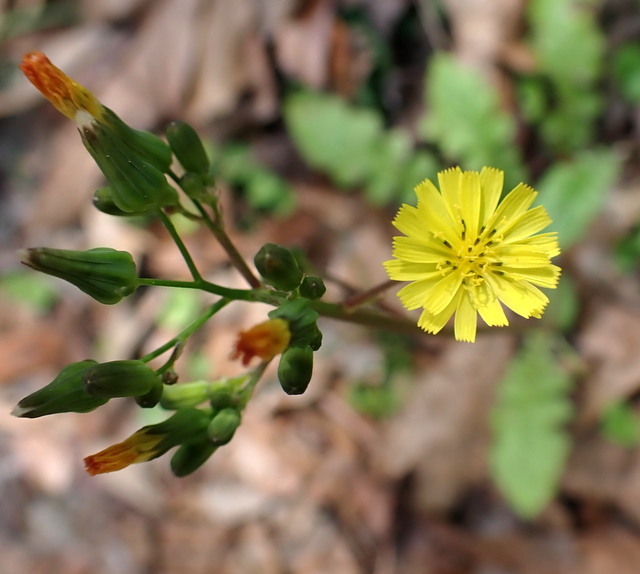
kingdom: Plantae
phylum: Tracheophyta
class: Magnoliopsida
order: Asterales
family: Asteraceae
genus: Youngia
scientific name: Youngia japonica
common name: Oriental false hawksbeard
